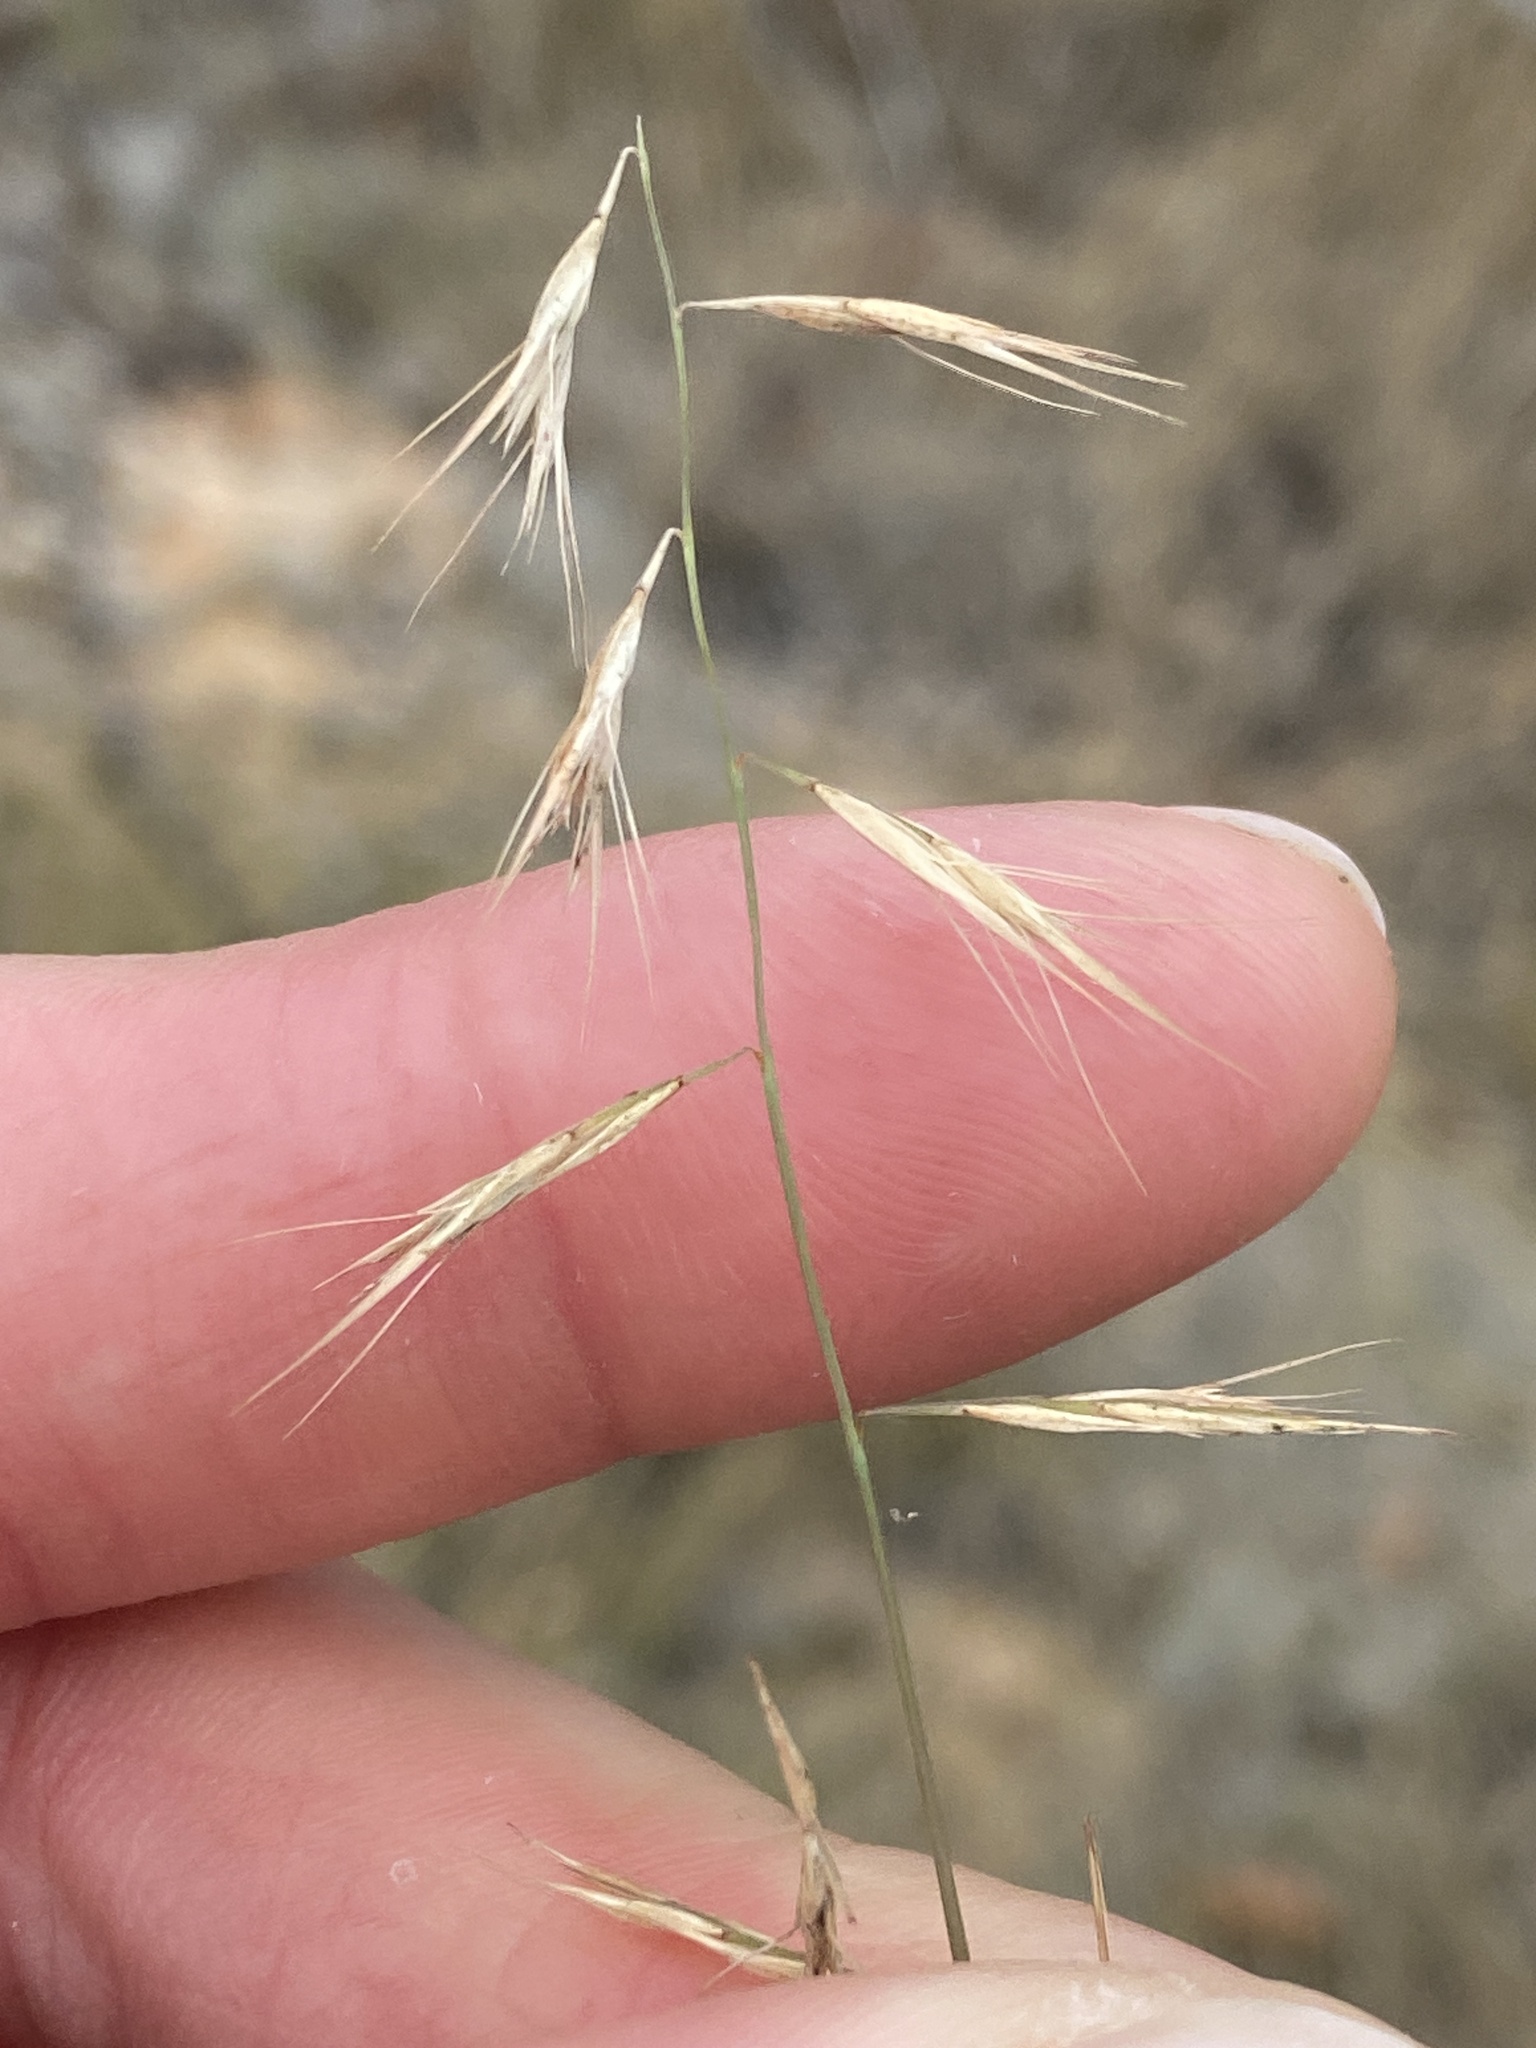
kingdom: Plantae
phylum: Tracheophyta
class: Liliopsida
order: Poales
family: Poaceae
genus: Bouteloua
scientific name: Bouteloua repens
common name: Slender grama
